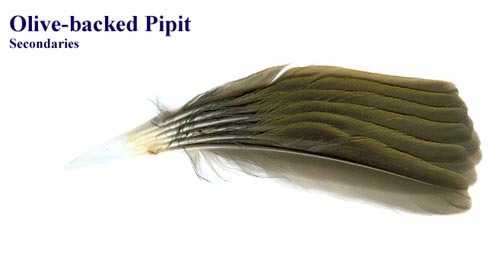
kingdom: Animalia
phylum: Chordata
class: Aves
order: Passeriformes
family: Motacillidae
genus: Anthus
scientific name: Anthus hodgsoni
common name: Olive-backed pipit
